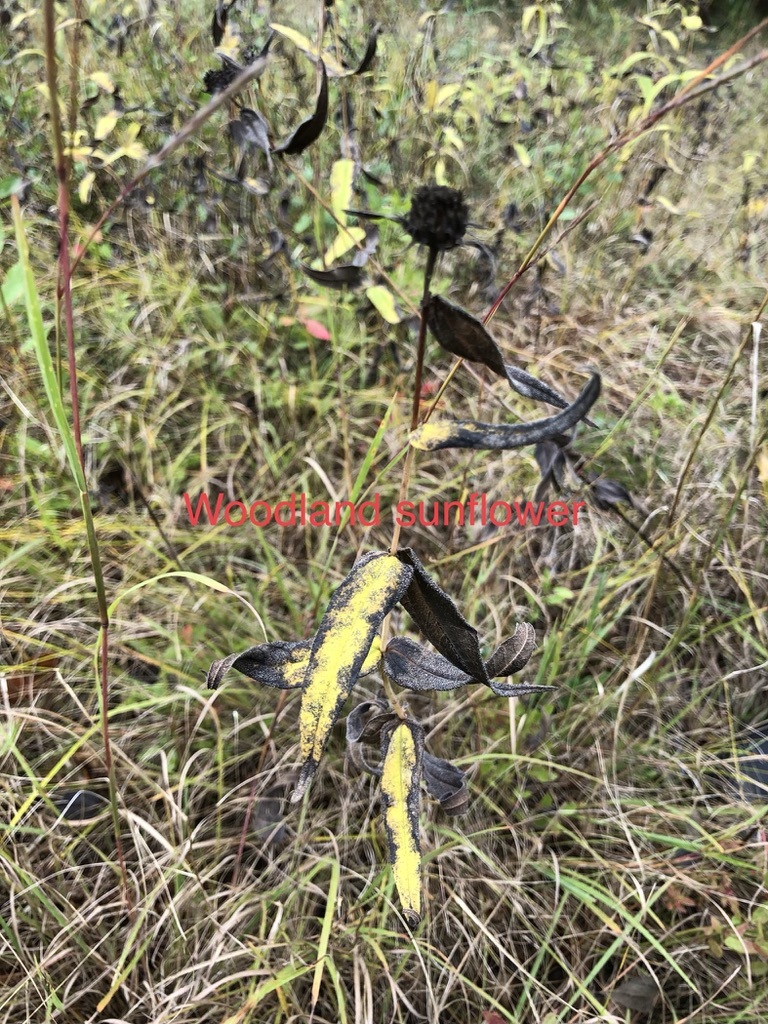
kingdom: Plantae
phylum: Tracheophyta
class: Magnoliopsida
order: Asterales
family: Asteraceae
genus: Helianthus
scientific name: Helianthus divaricatus
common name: Divergent sunflower
